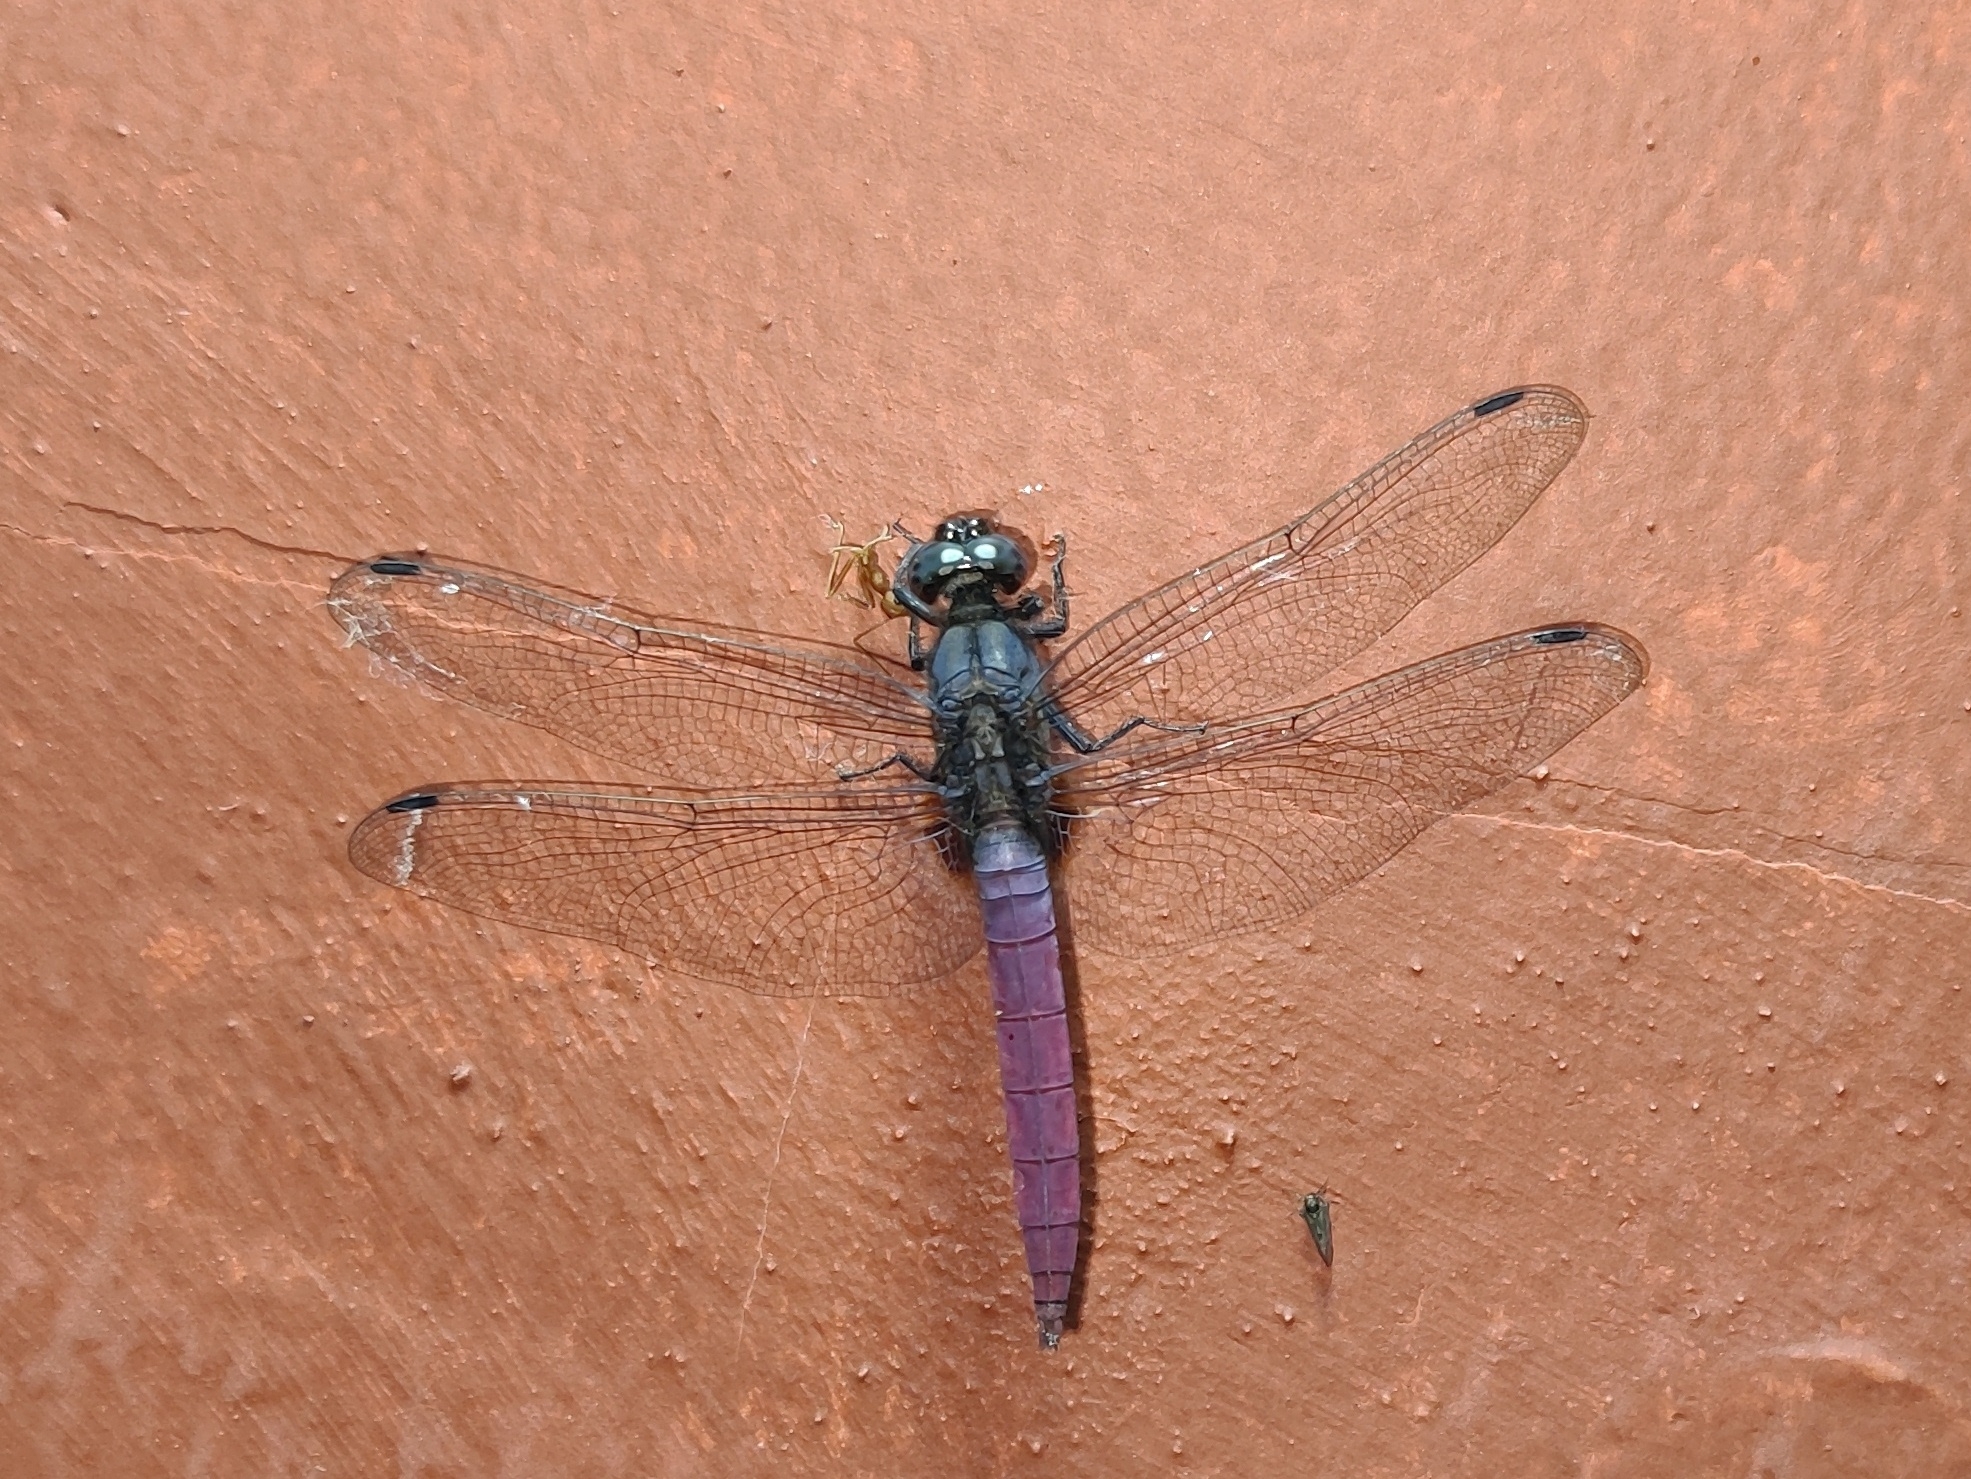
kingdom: Animalia
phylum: Arthropoda
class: Insecta
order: Odonata
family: Libellulidae
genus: Orthetrum
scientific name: Orthetrum pruinosum
